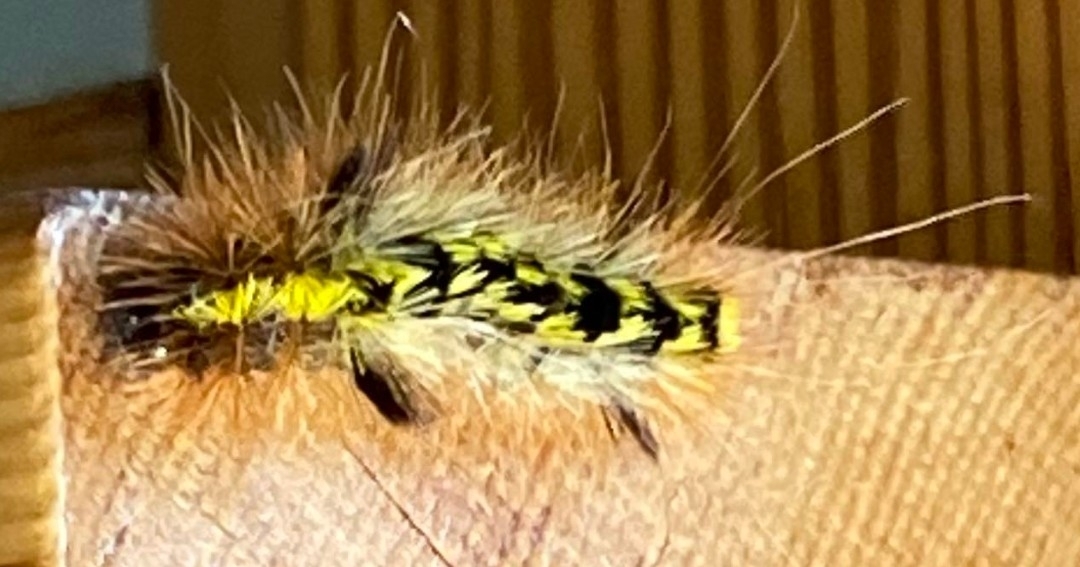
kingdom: Animalia
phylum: Arthropoda
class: Insecta
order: Lepidoptera
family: Erebidae
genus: Lophocampa
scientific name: Lophocampa argentata
